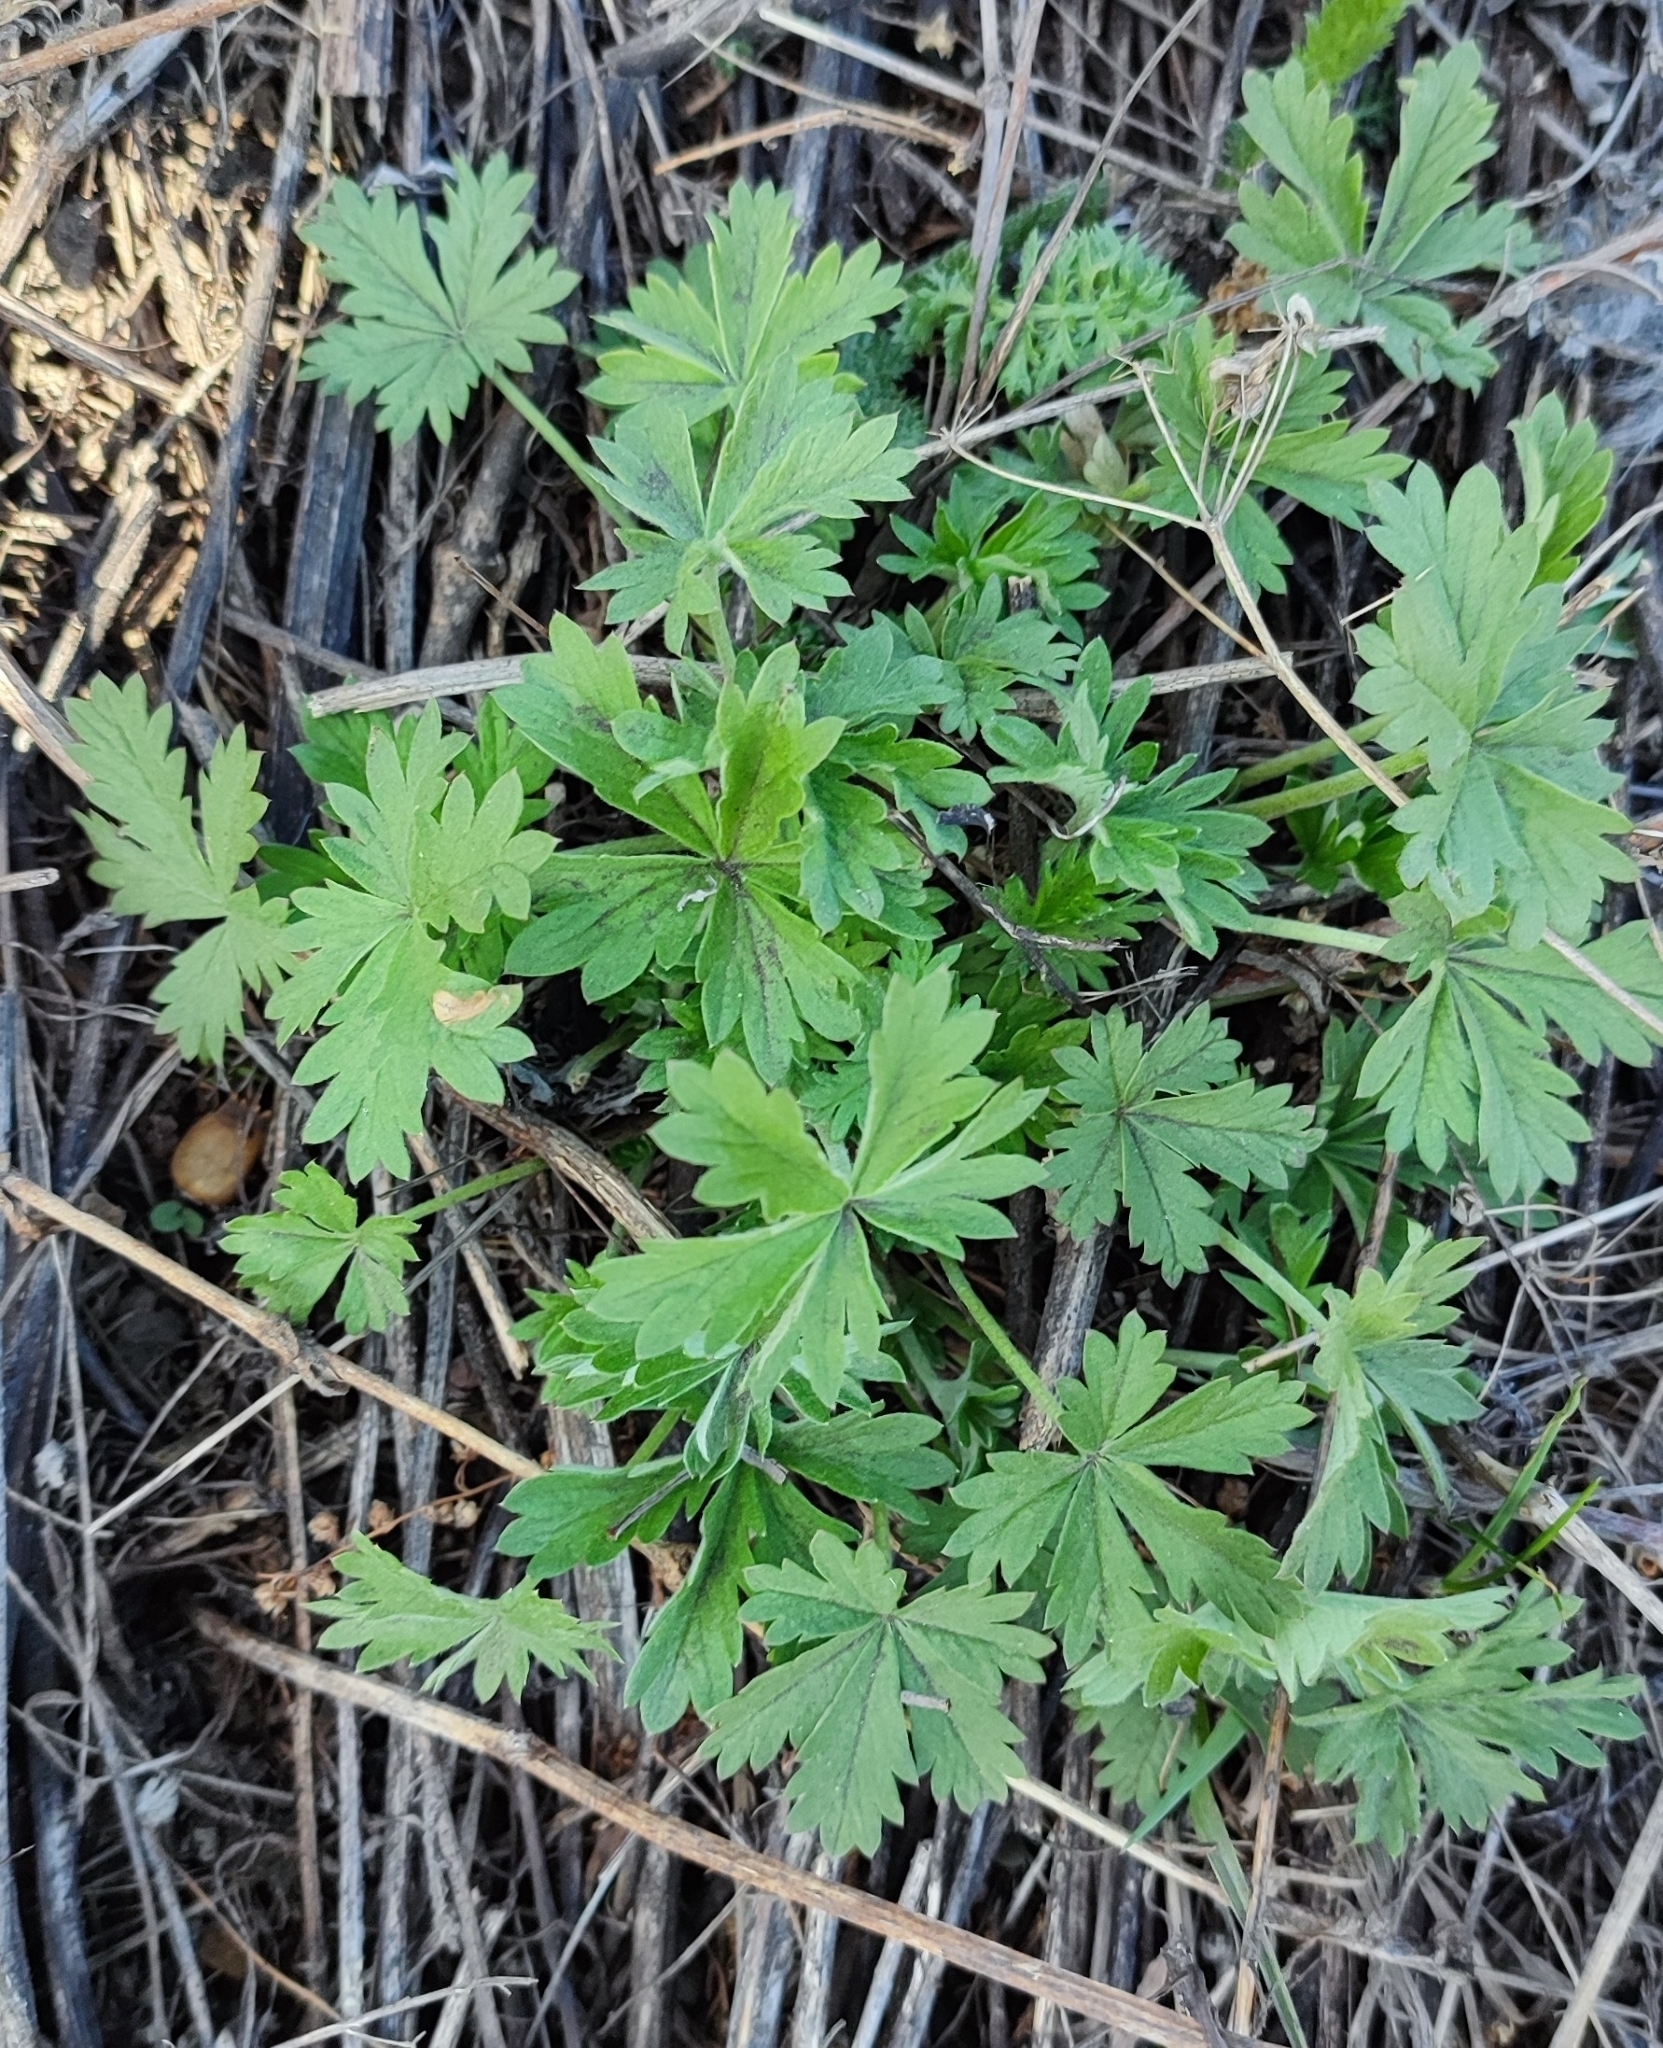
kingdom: Plantae
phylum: Tracheophyta
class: Magnoliopsida
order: Rosales
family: Rosaceae
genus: Potentilla
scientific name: Potentilla argentea
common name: Hoary cinquefoil
